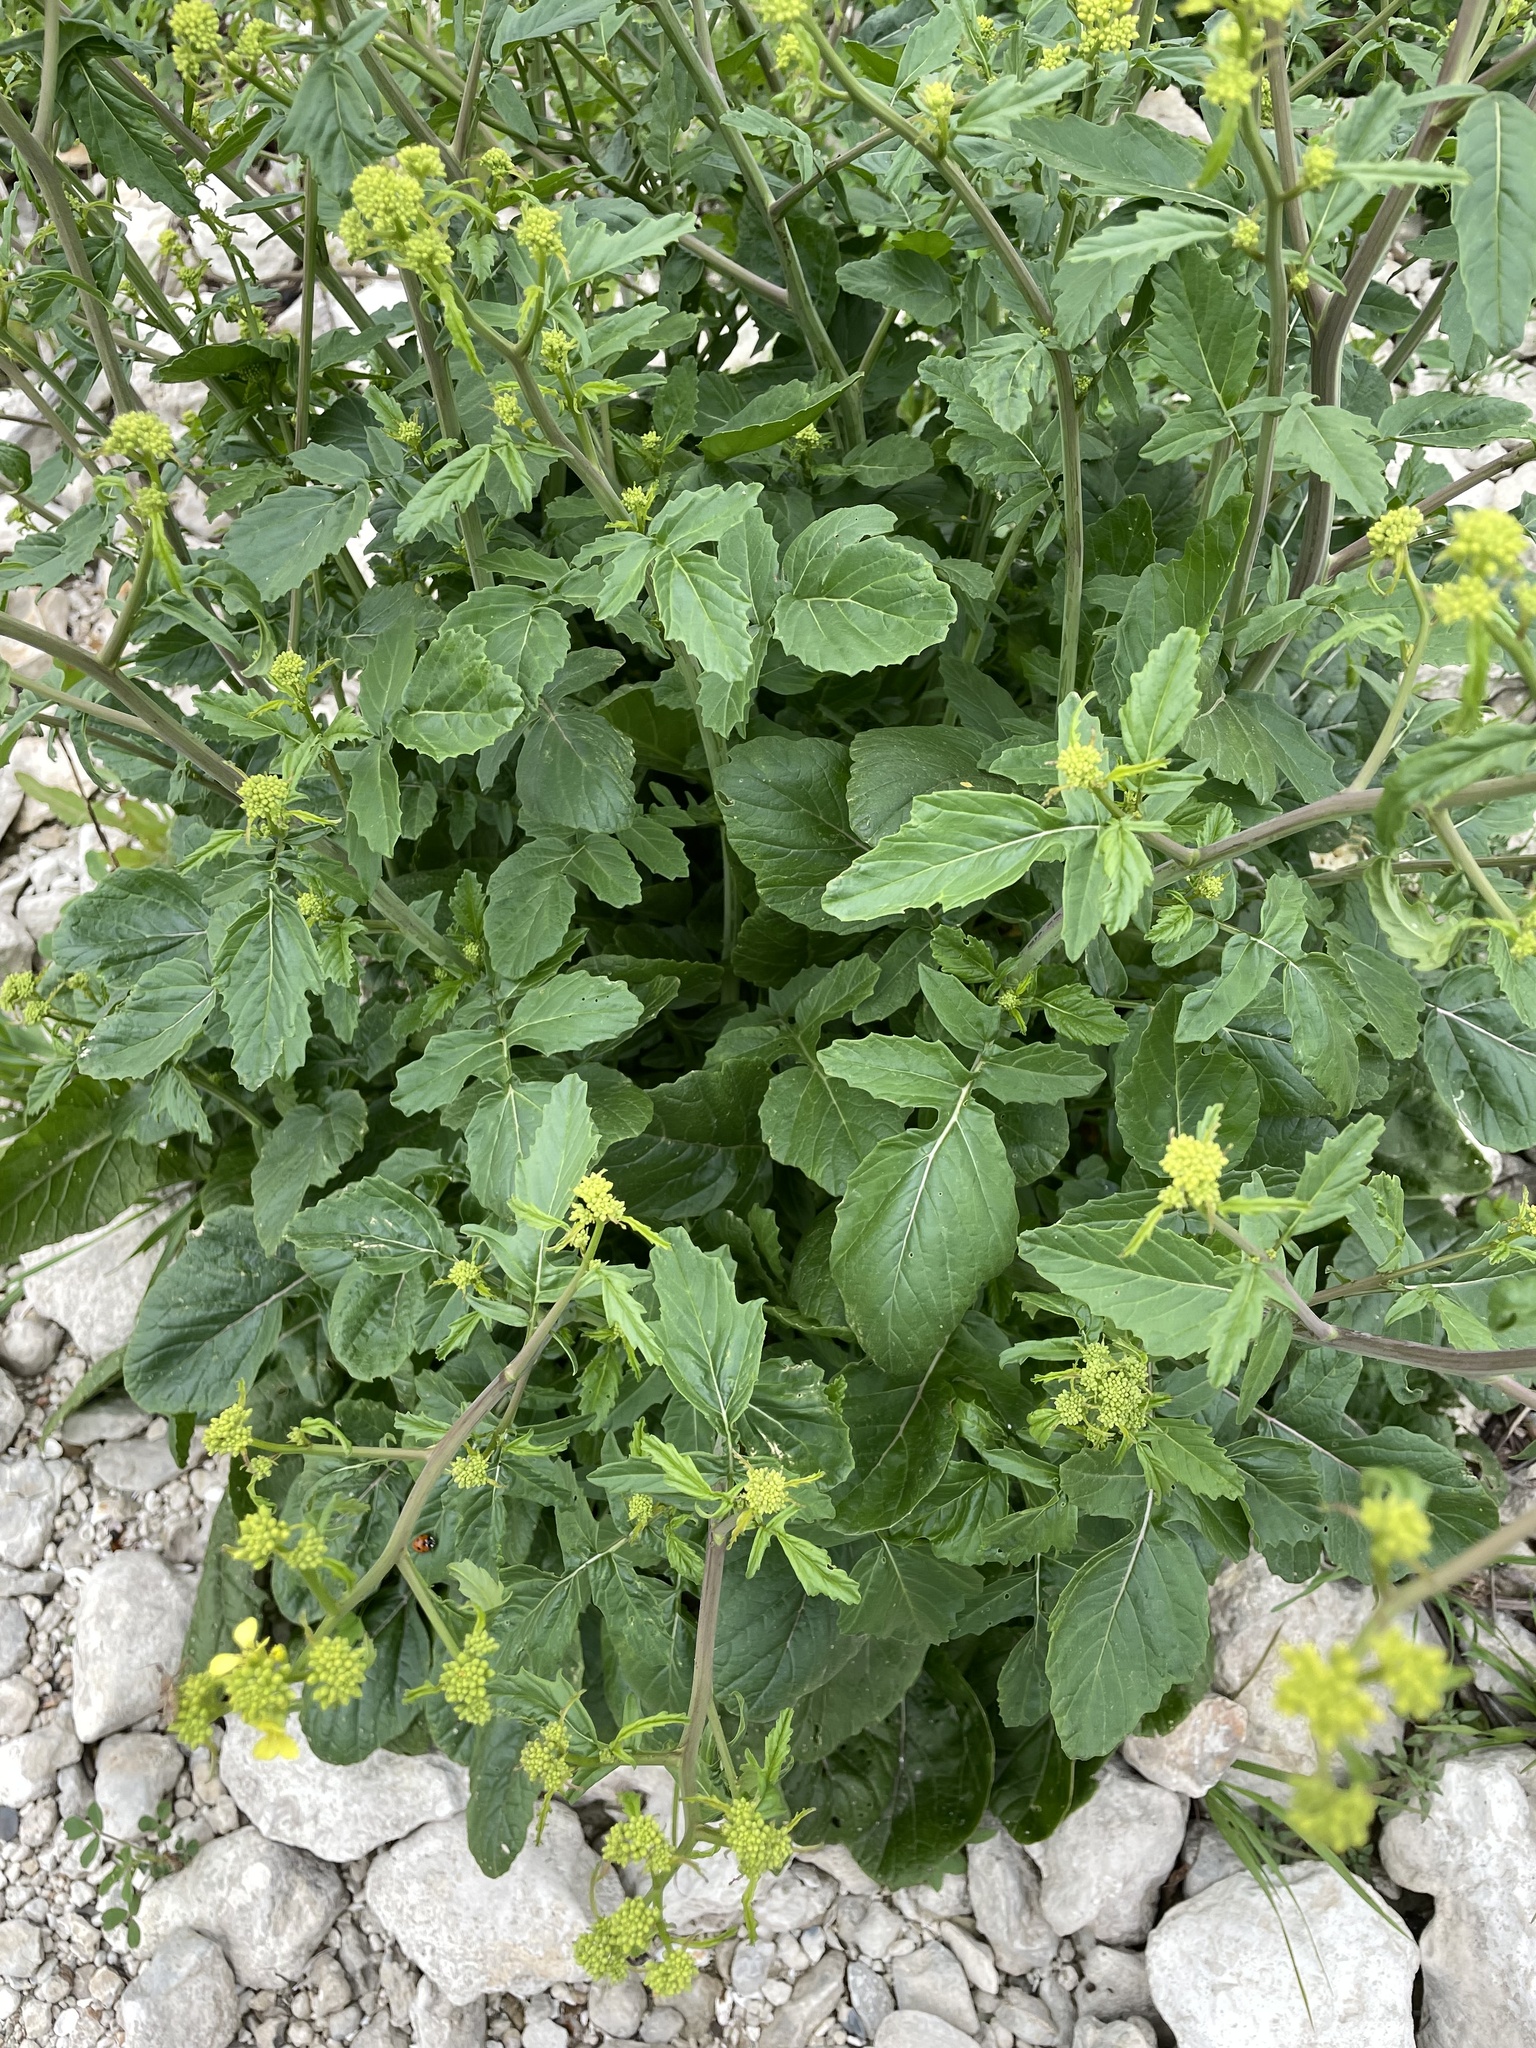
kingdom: Plantae
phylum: Tracheophyta
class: Magnoliopsida
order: Brassicales
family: Brassicaceae
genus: Rapistrum
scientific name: Rapistrum rugosum
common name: Annual bastardcabbage
